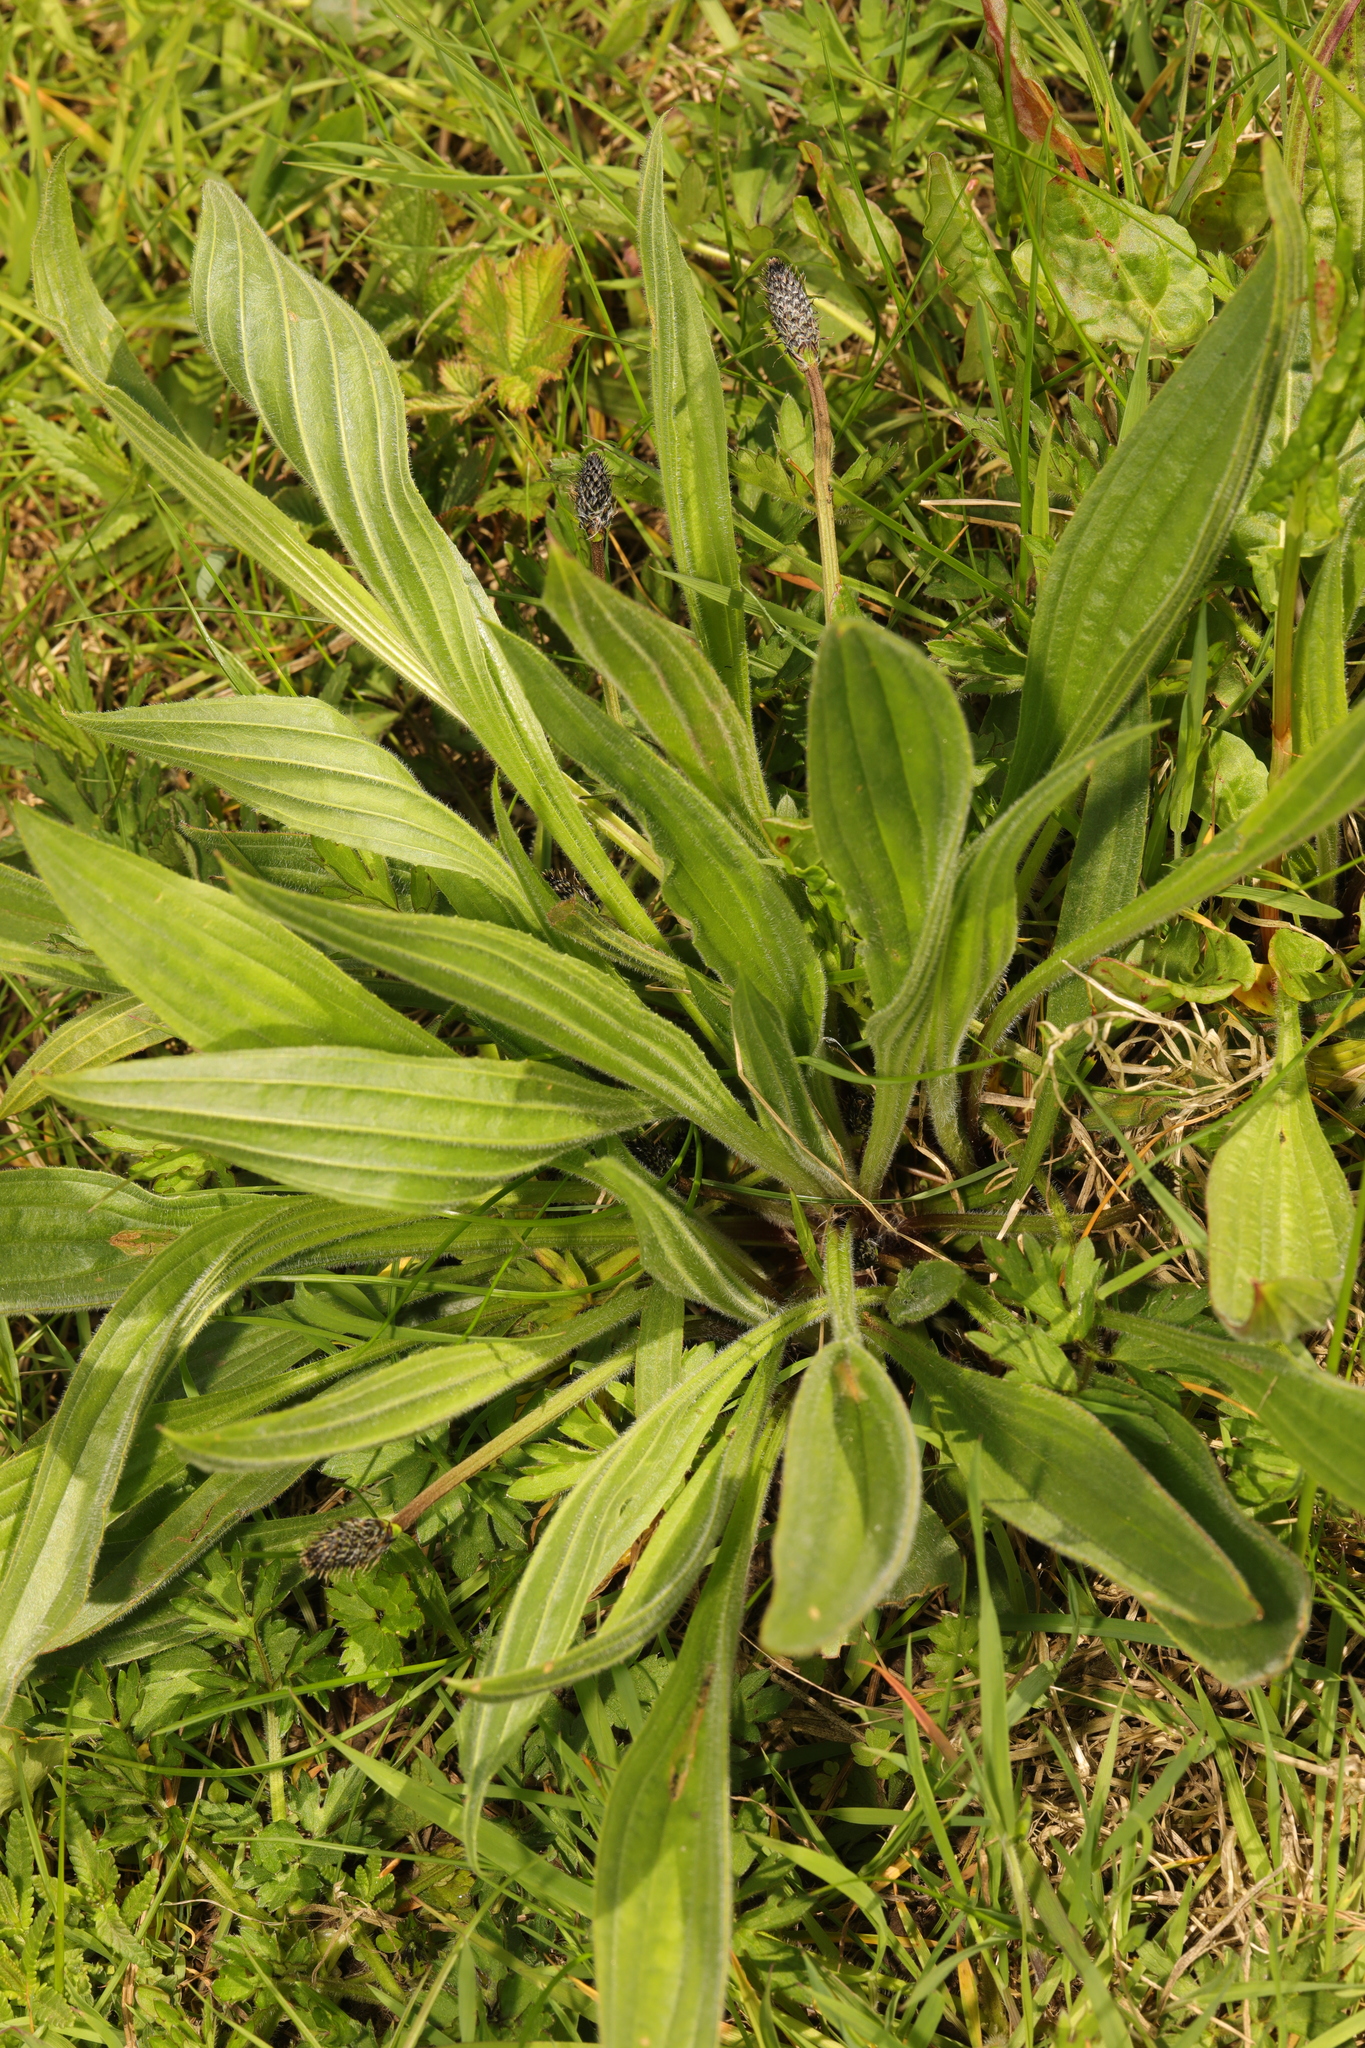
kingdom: Plantae
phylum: Tracheophyta
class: Magnoliopsida
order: Lamiales
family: Plantaginaceae
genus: Plantago
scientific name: Plantago lanceolata
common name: Ribwort plantain
